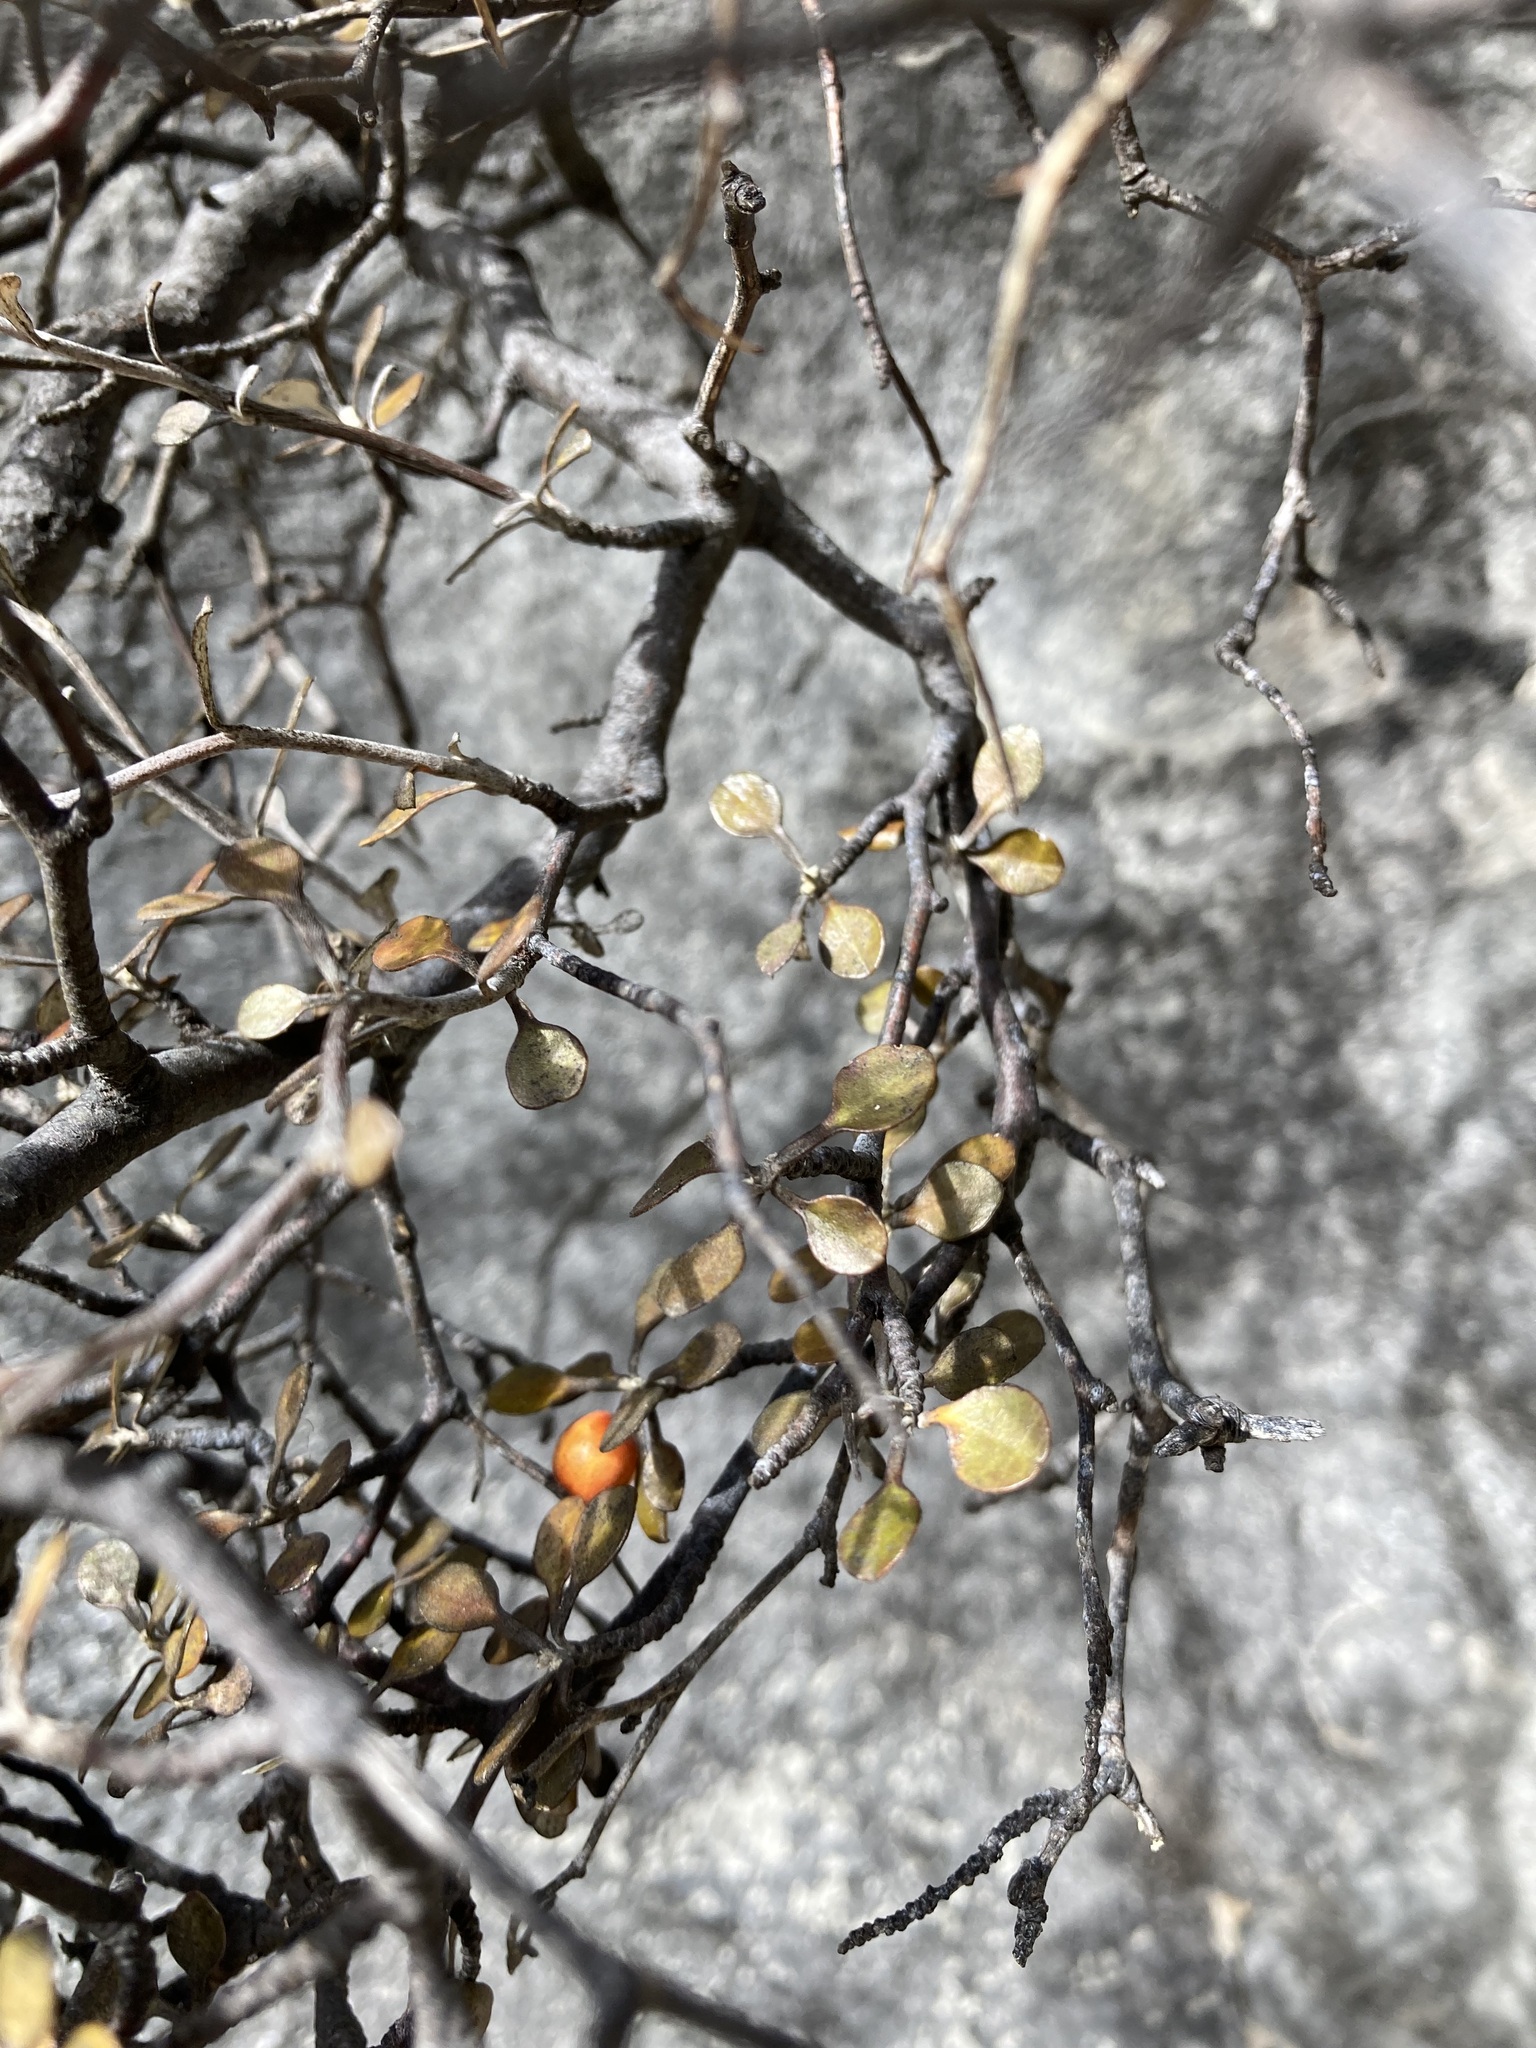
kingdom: Plantae
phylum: Tracheophyta
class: Magnoliopsida
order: Asterales
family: Argophyllaceae
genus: Corokia
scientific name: Corokia cotoneaster
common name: Wire nettingbush
